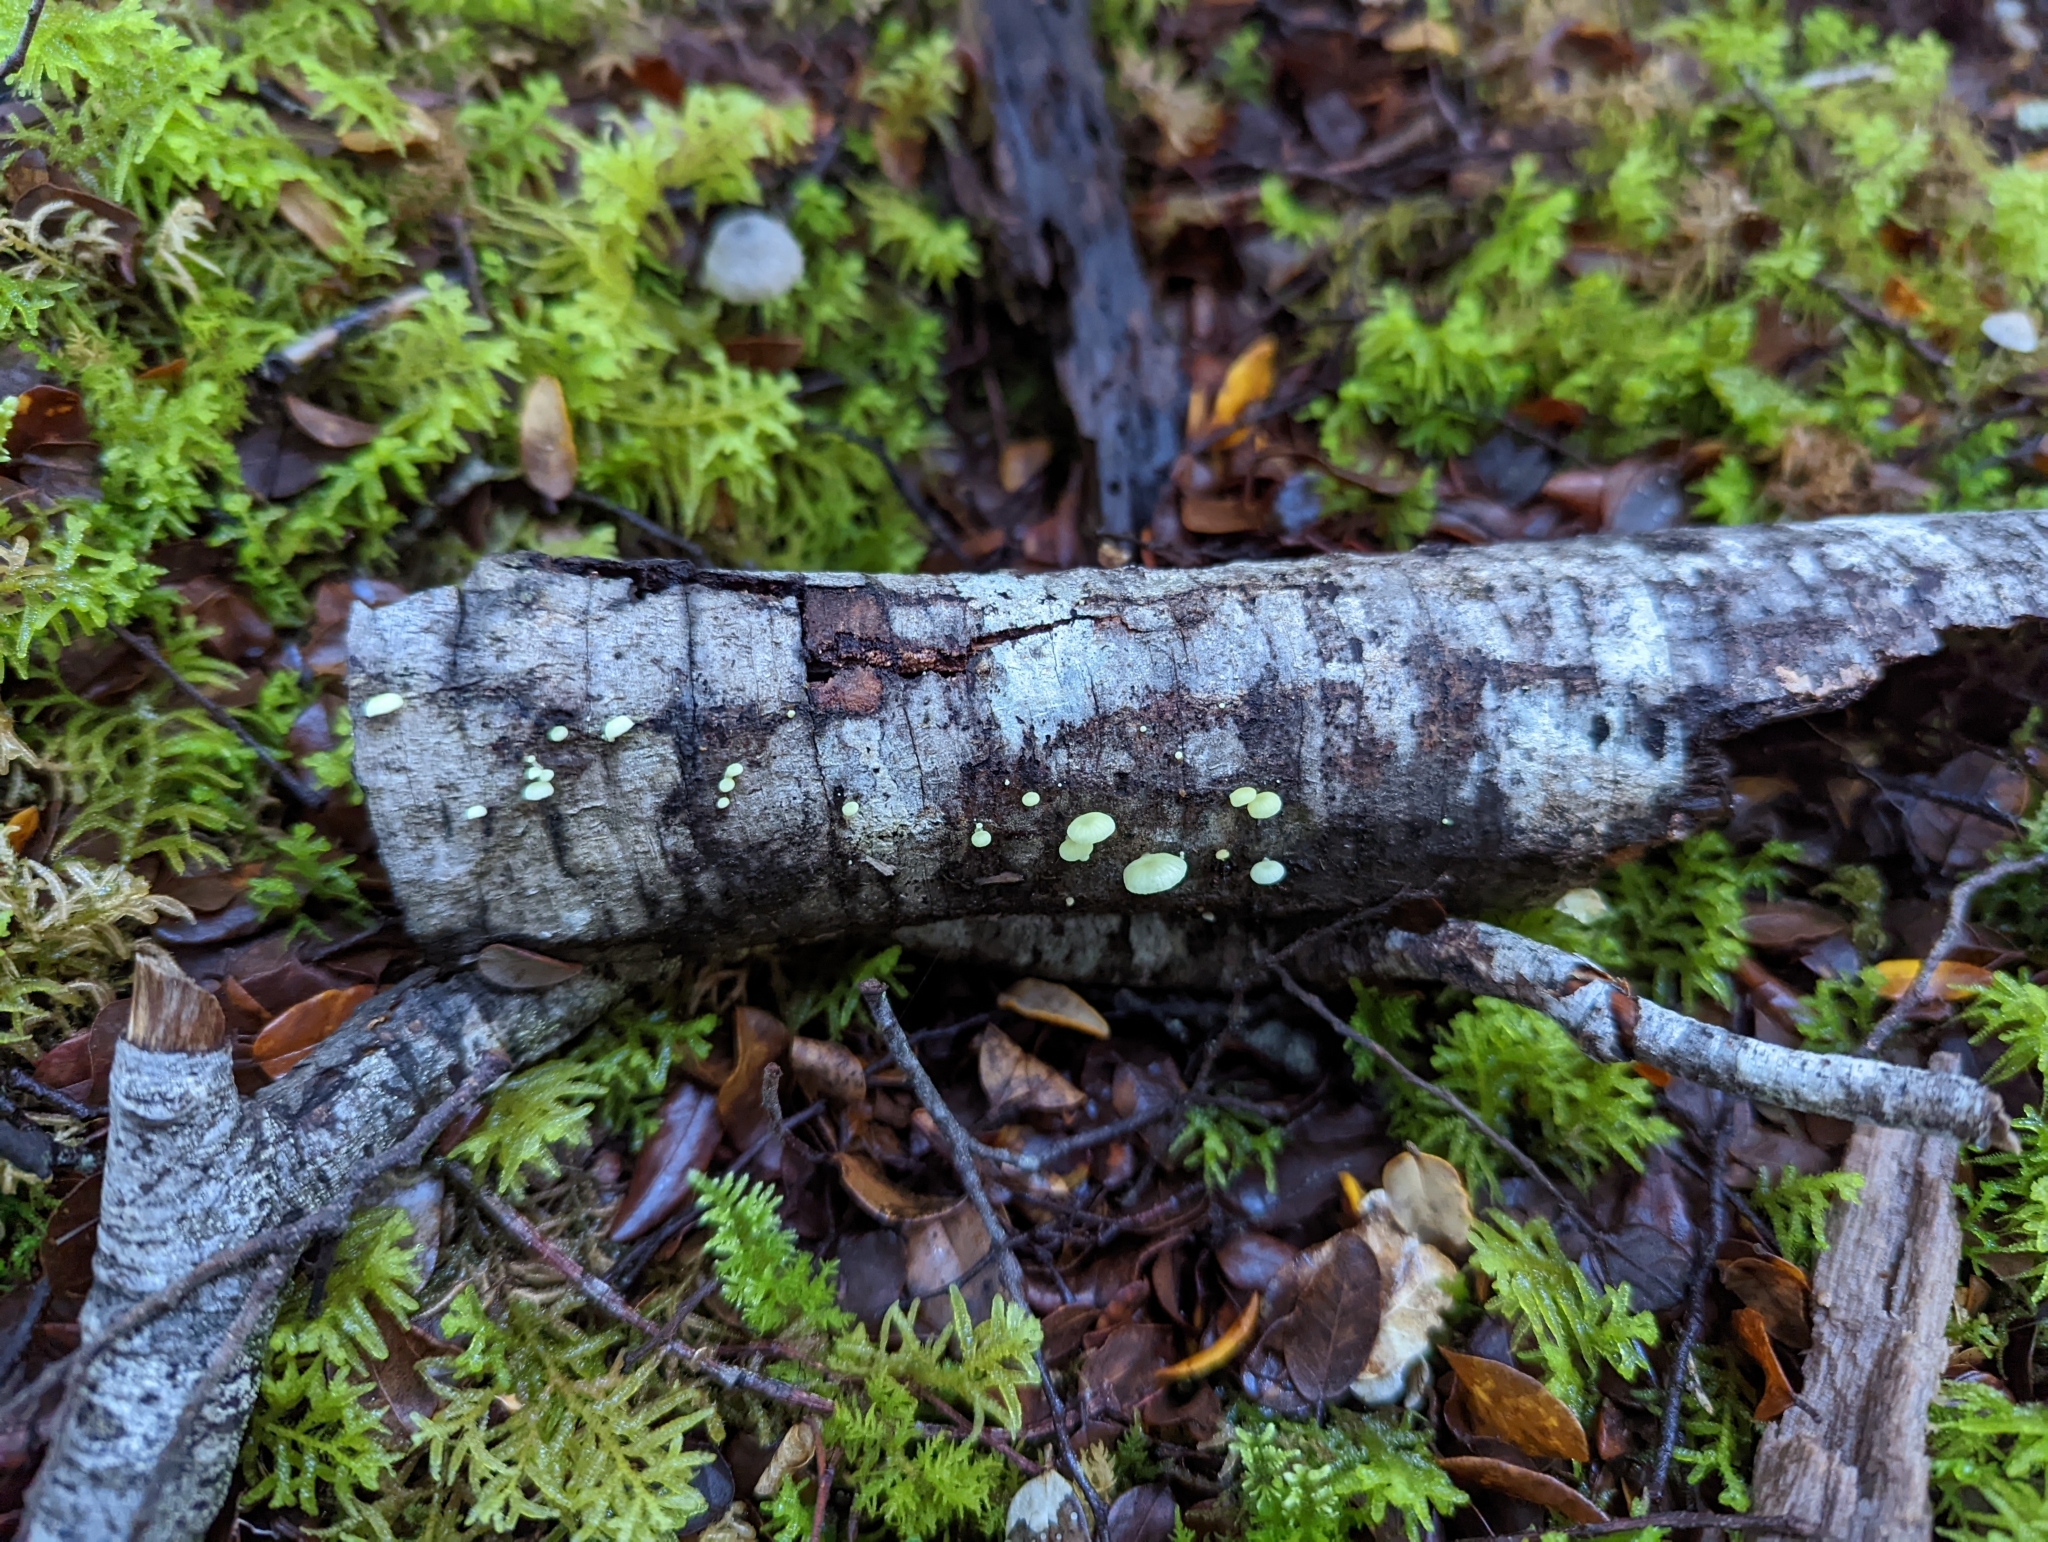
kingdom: Fungi
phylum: Basidiomycota
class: Agaricomycetes
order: Agaricales
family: Mycenaceae
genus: Mycena
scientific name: Mycena roseoflava
